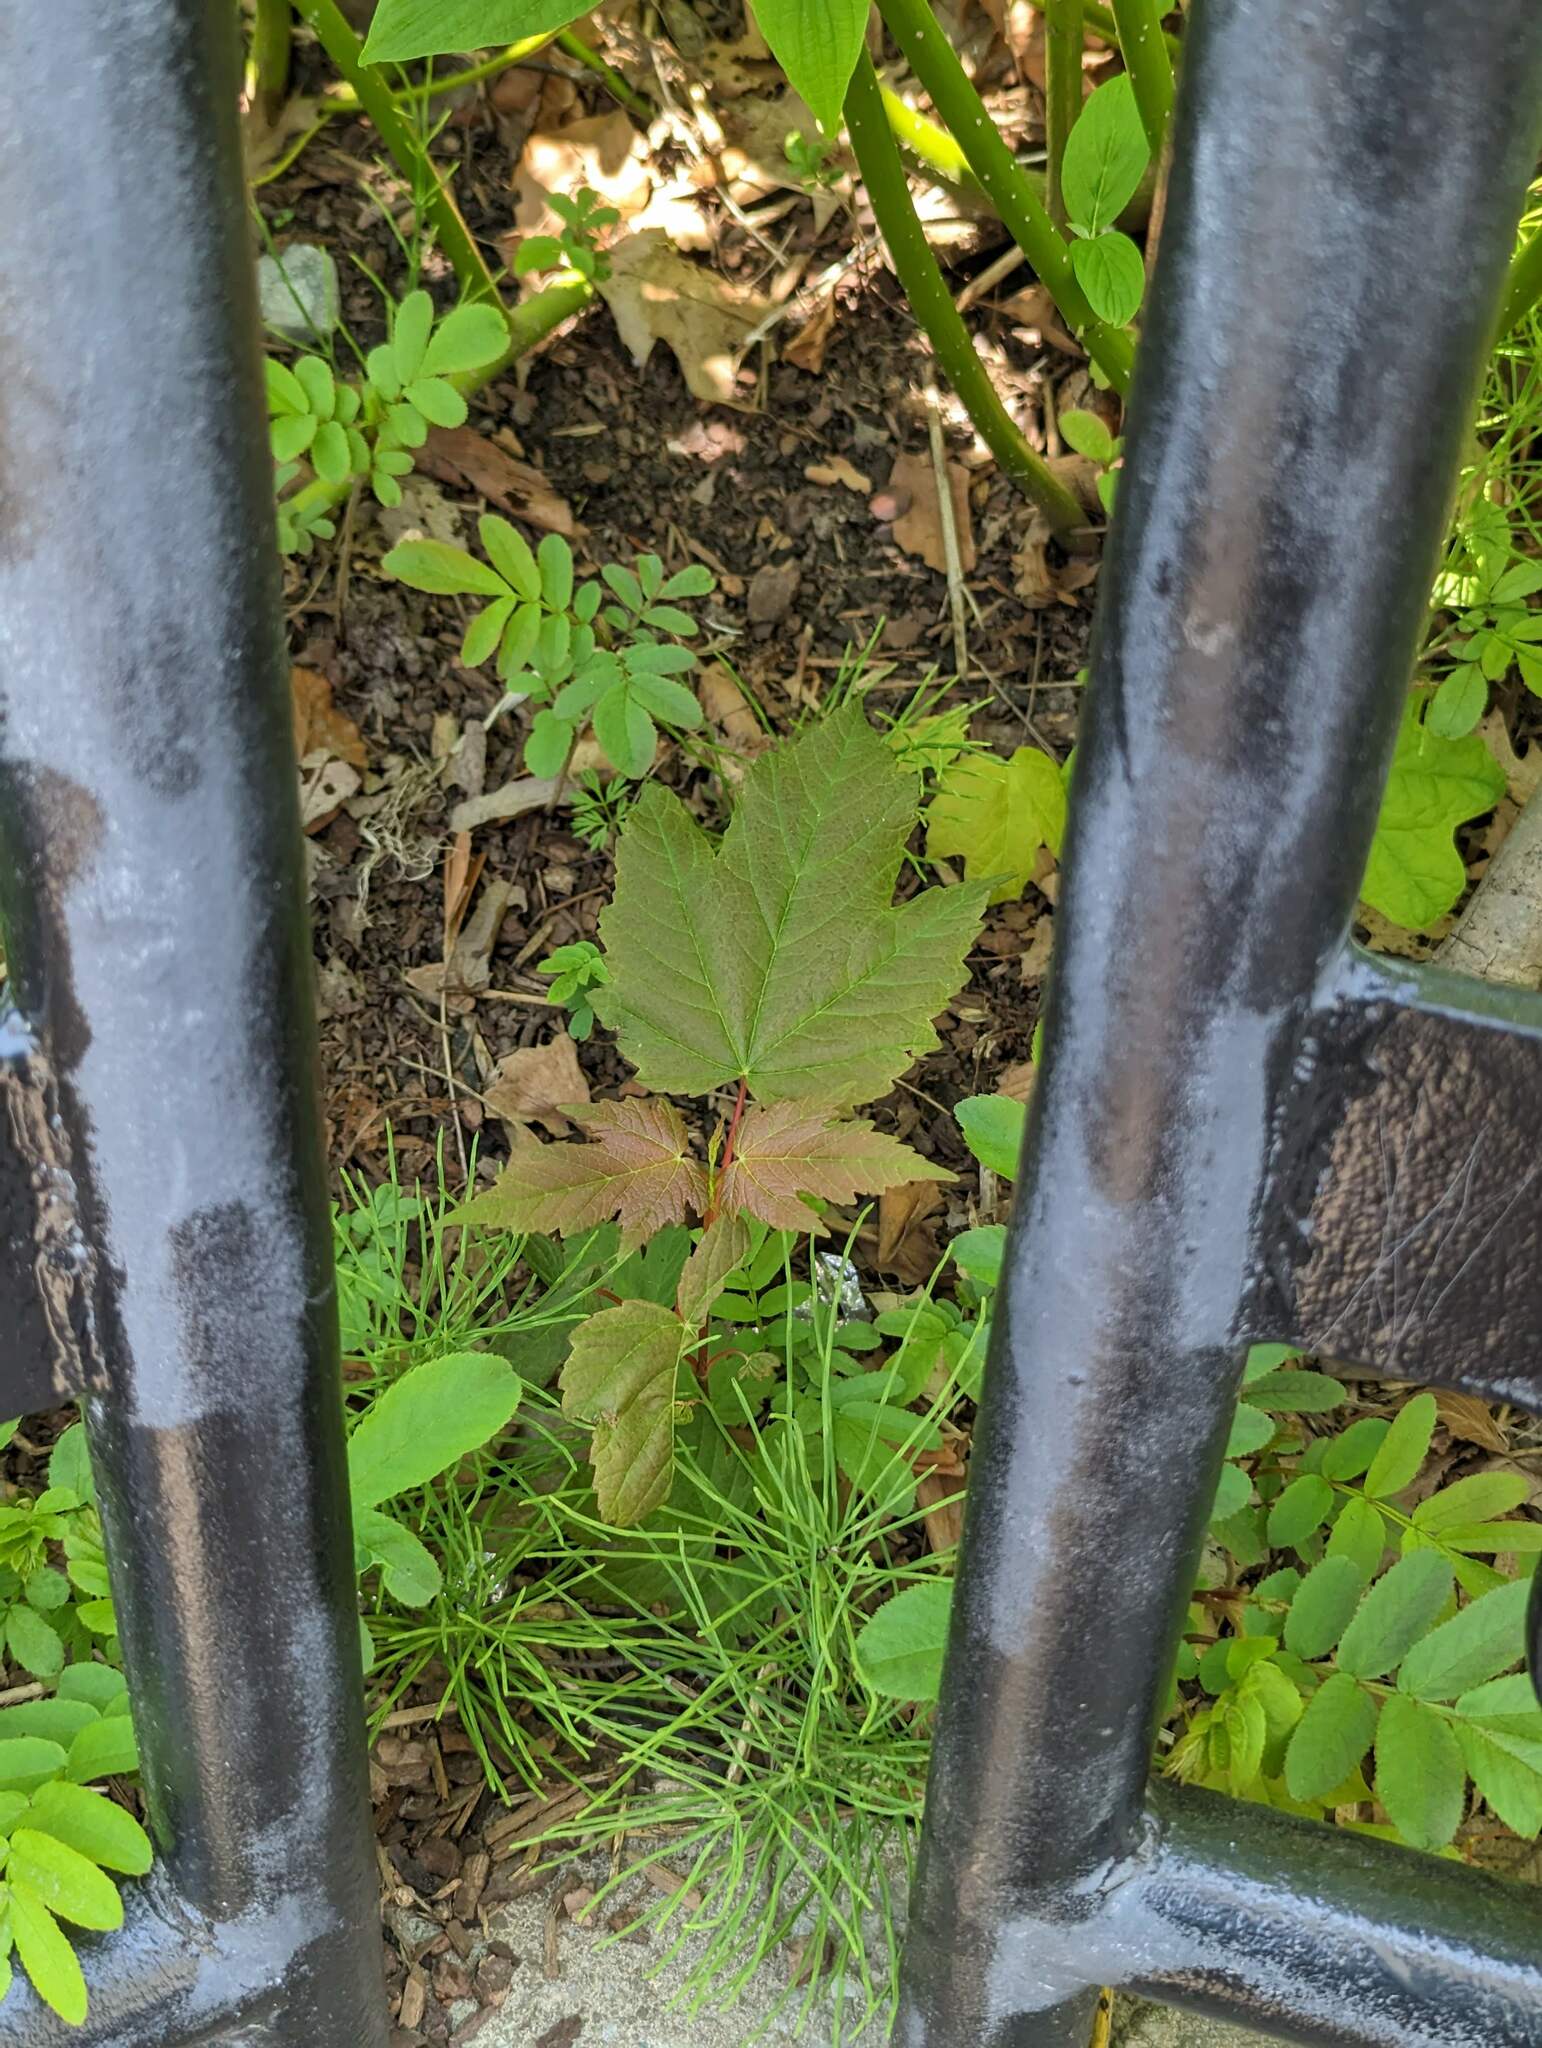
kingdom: Plantae
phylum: Tracheophyta
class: Magnoliopsida
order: Sapindales
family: Sapindaceae
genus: Acer
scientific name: Acer rubrum
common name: Red maple
